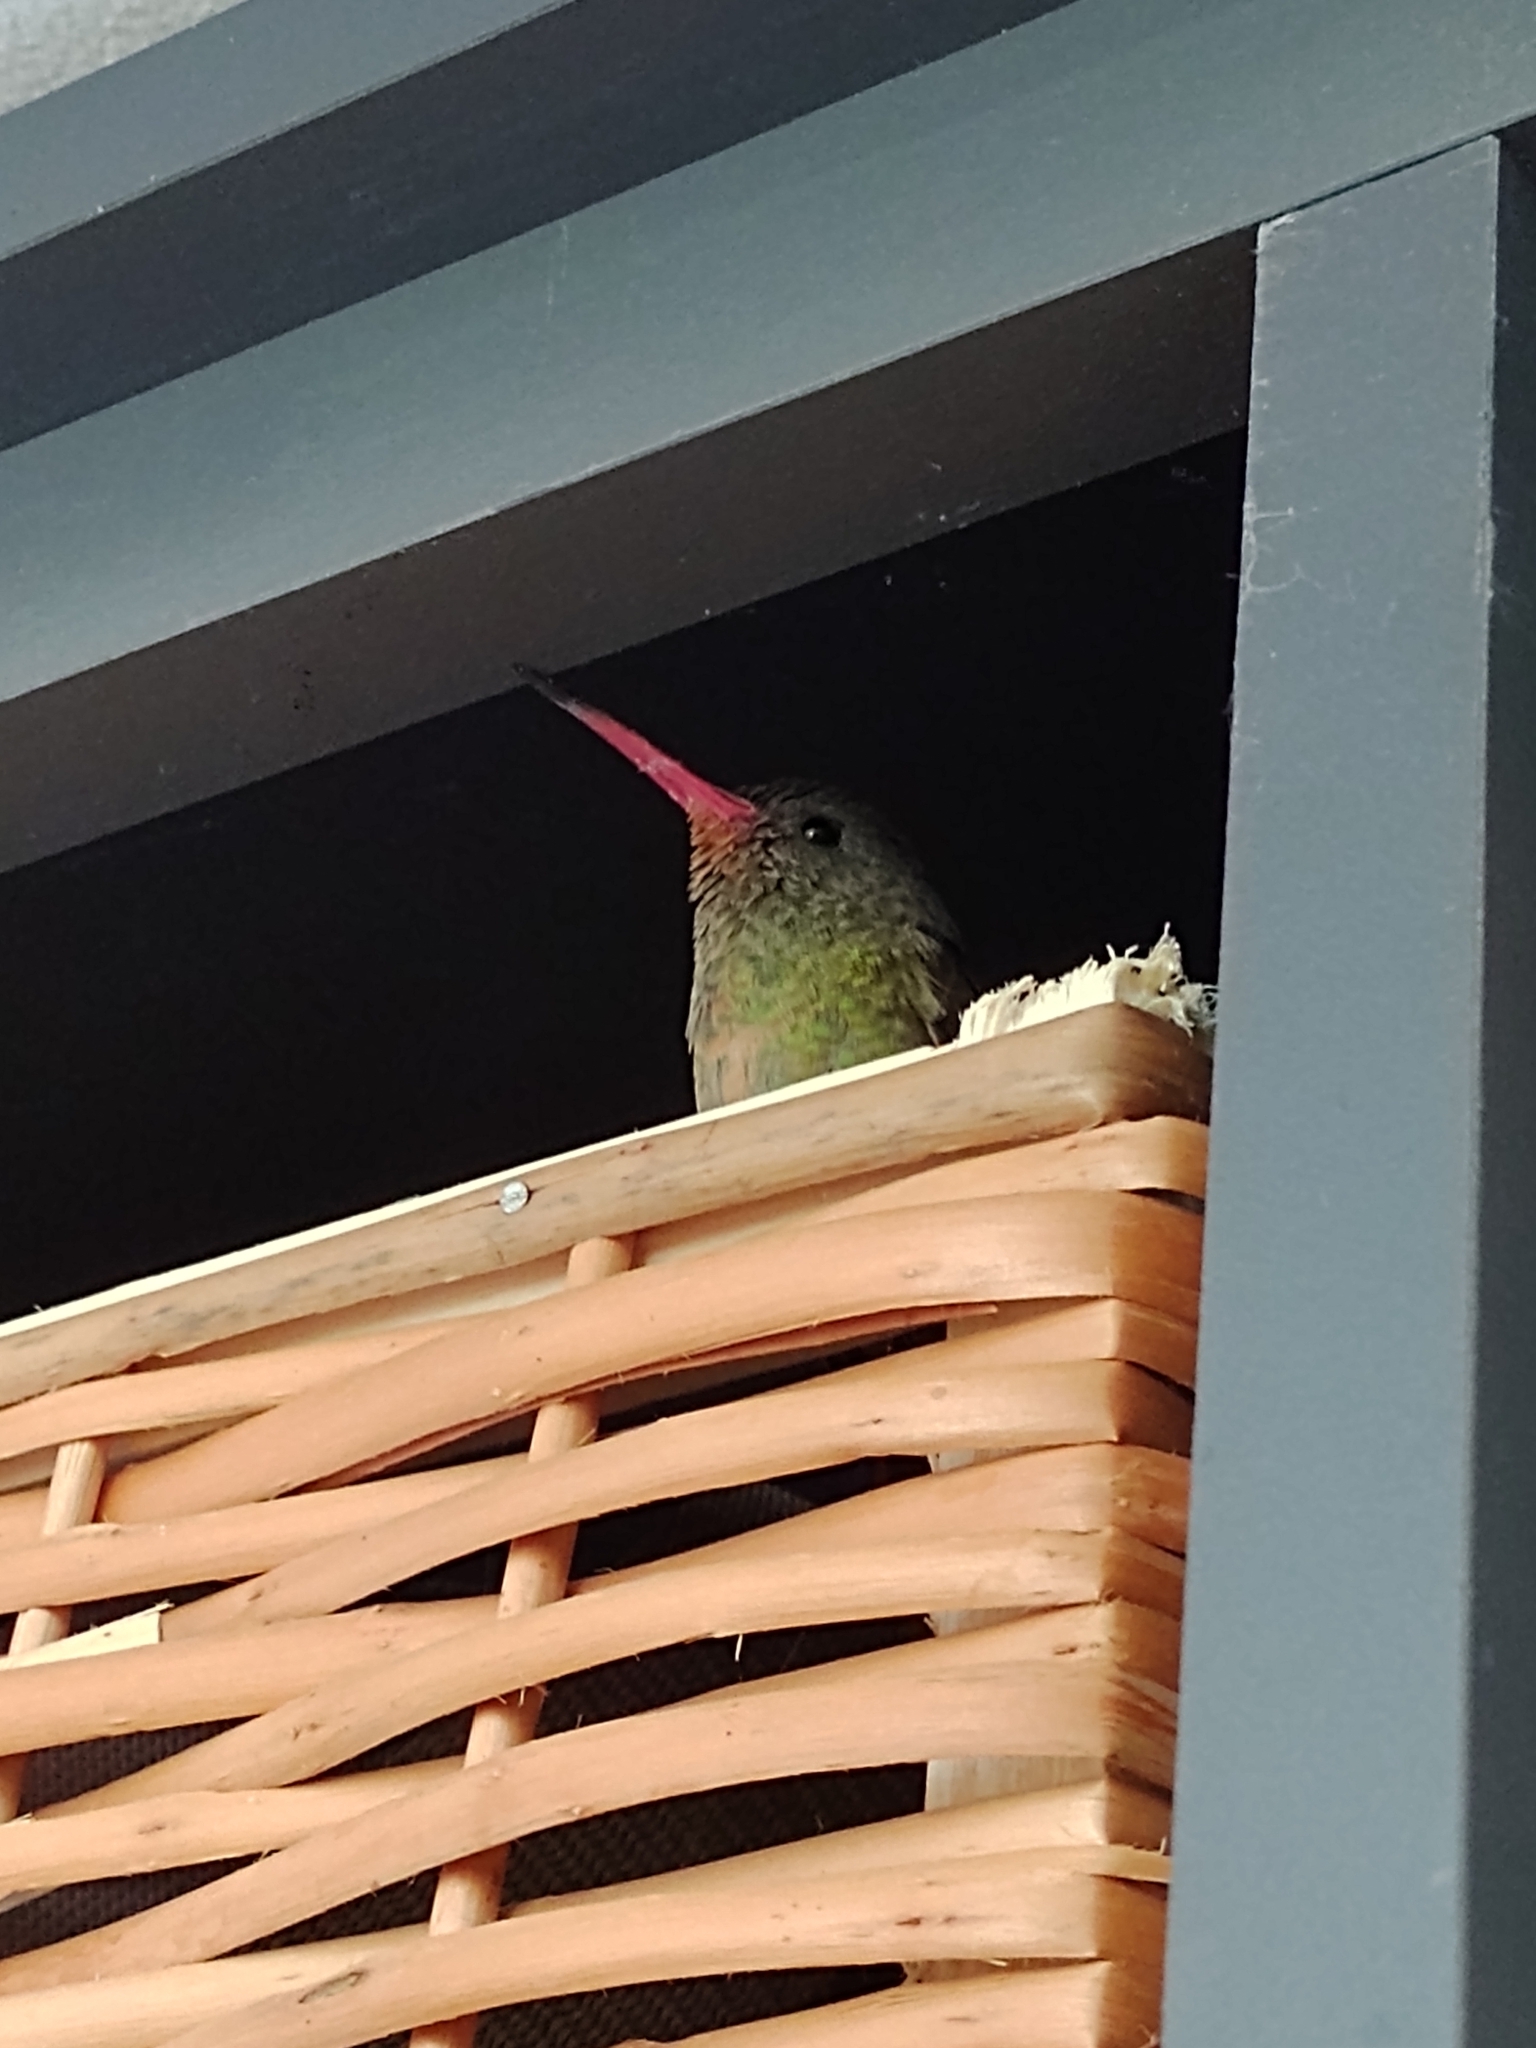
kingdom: Animalia
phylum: Chordata
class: Aves
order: Apodiformes
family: Trochilidae
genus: Hylocharis
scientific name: Hylocharis chrysura
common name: Gilded sapphire
